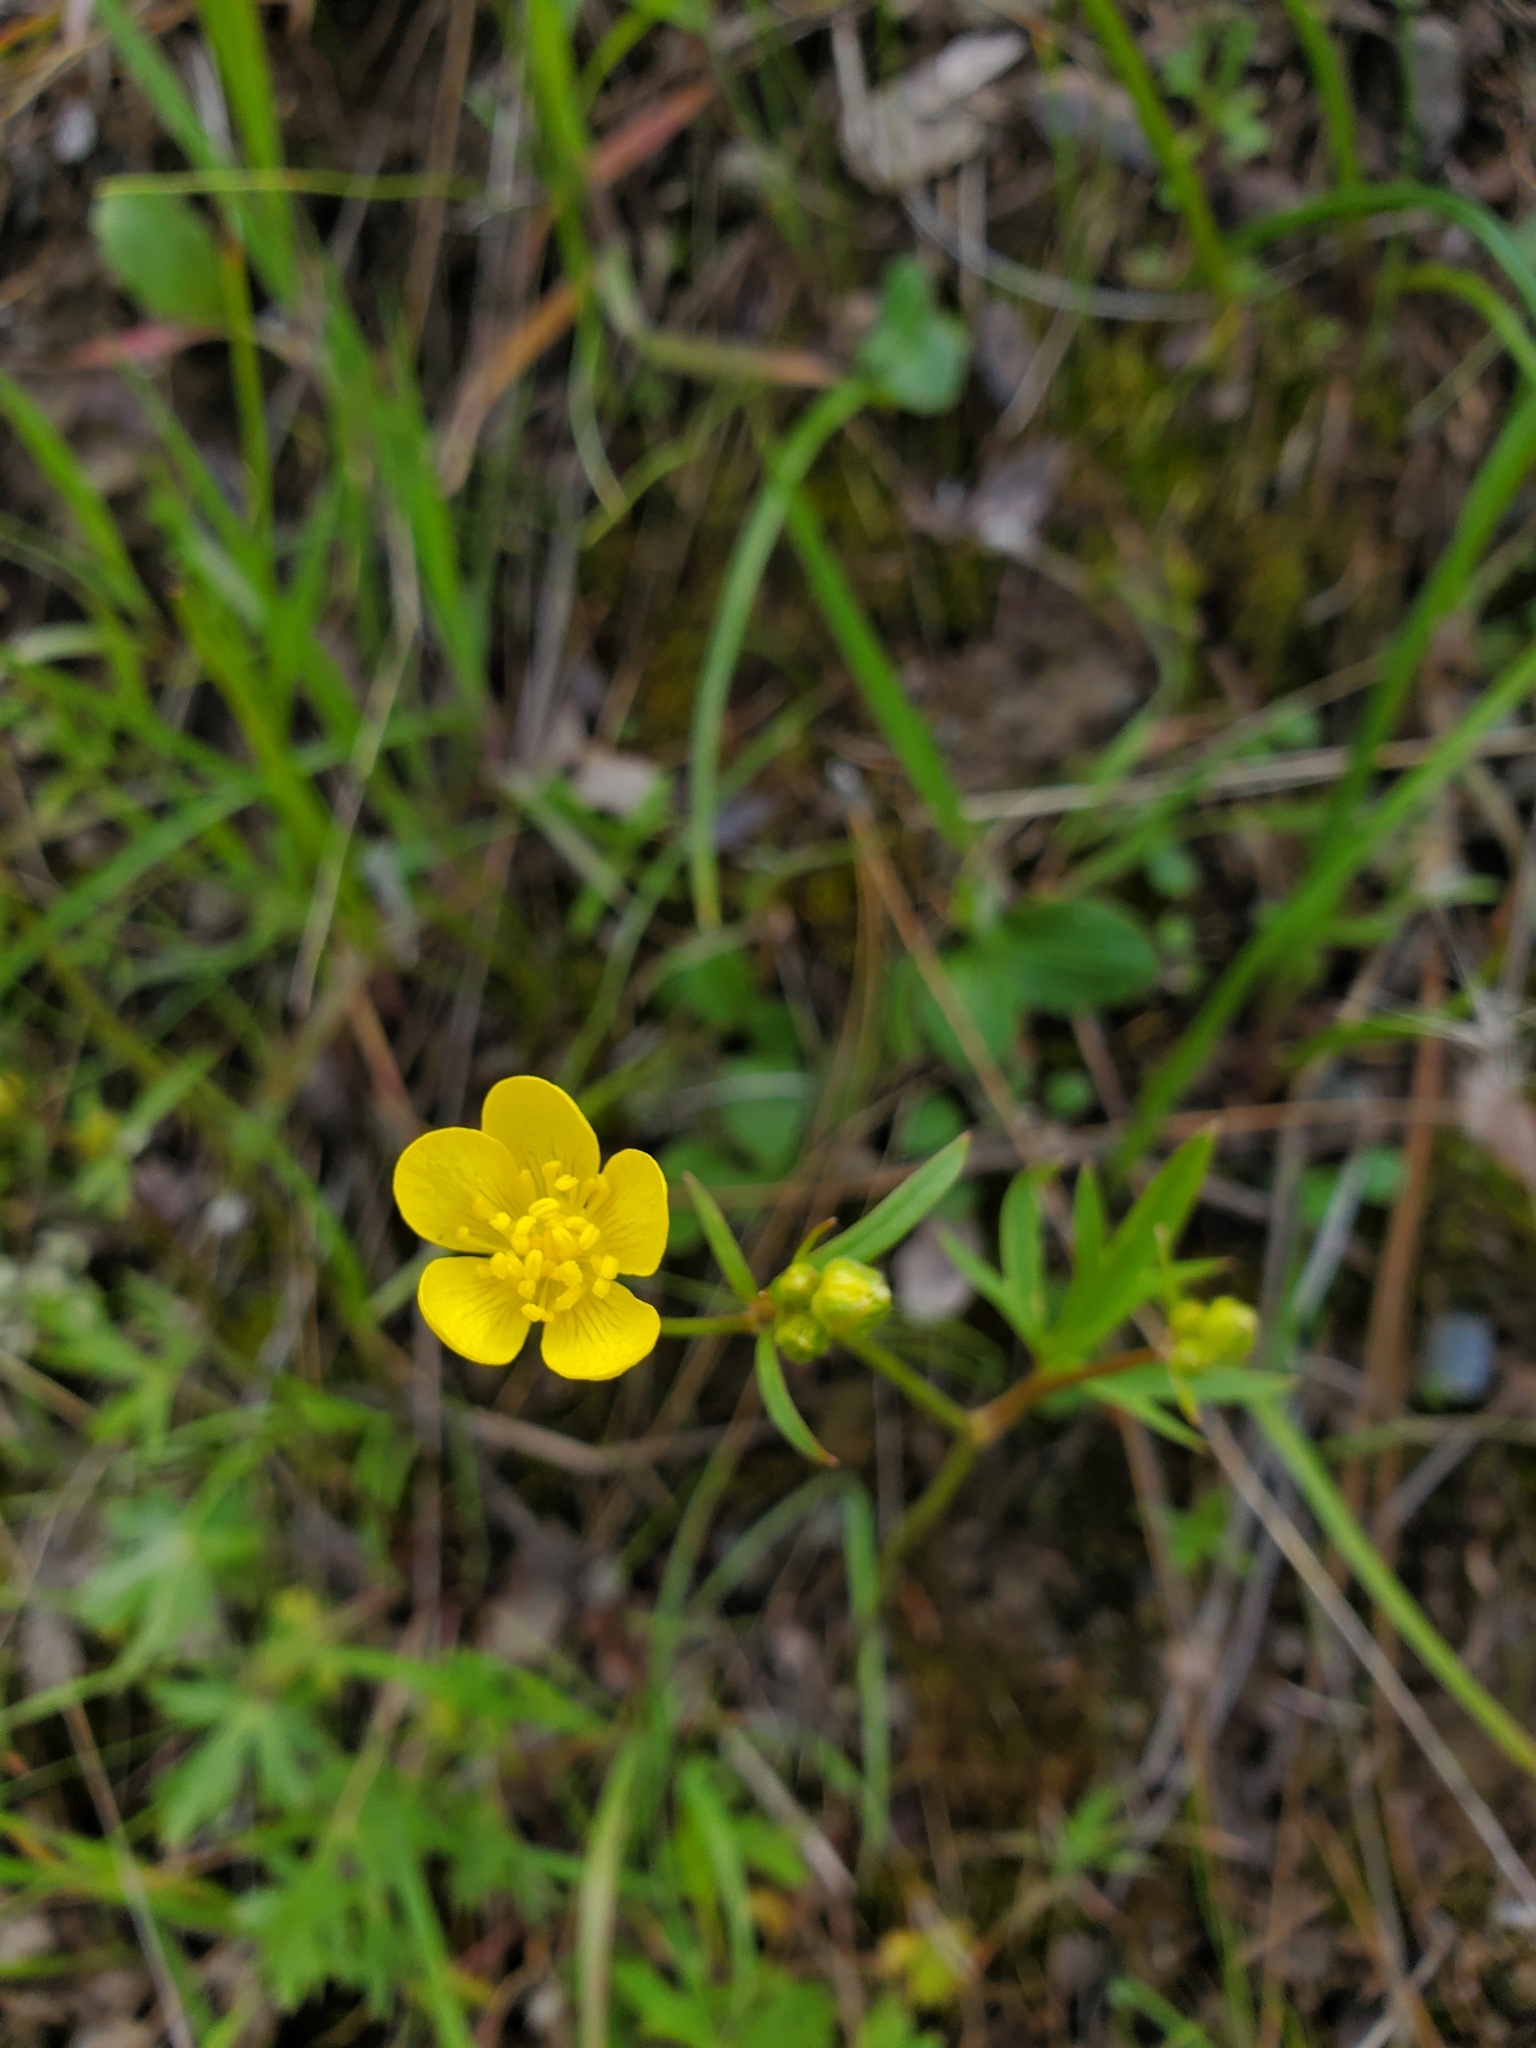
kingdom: Plantae
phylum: Tracheophyta
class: Magnoliopsida
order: Ranunculales
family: Ranunculaceae
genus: Ranunculus
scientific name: Ranunculus occidentalis
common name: Western buttercup
